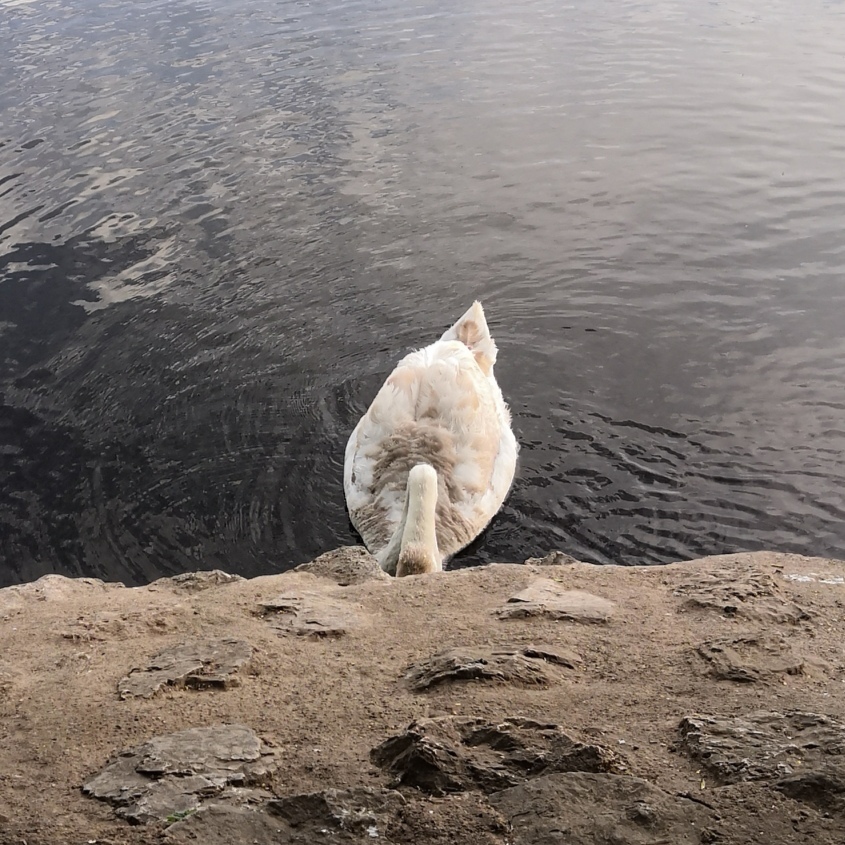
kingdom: Animalia
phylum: Chordata
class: Aves
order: Anseriformes
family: Anatidae
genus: Cygnus
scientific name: Cygnus olor
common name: Mute swan
